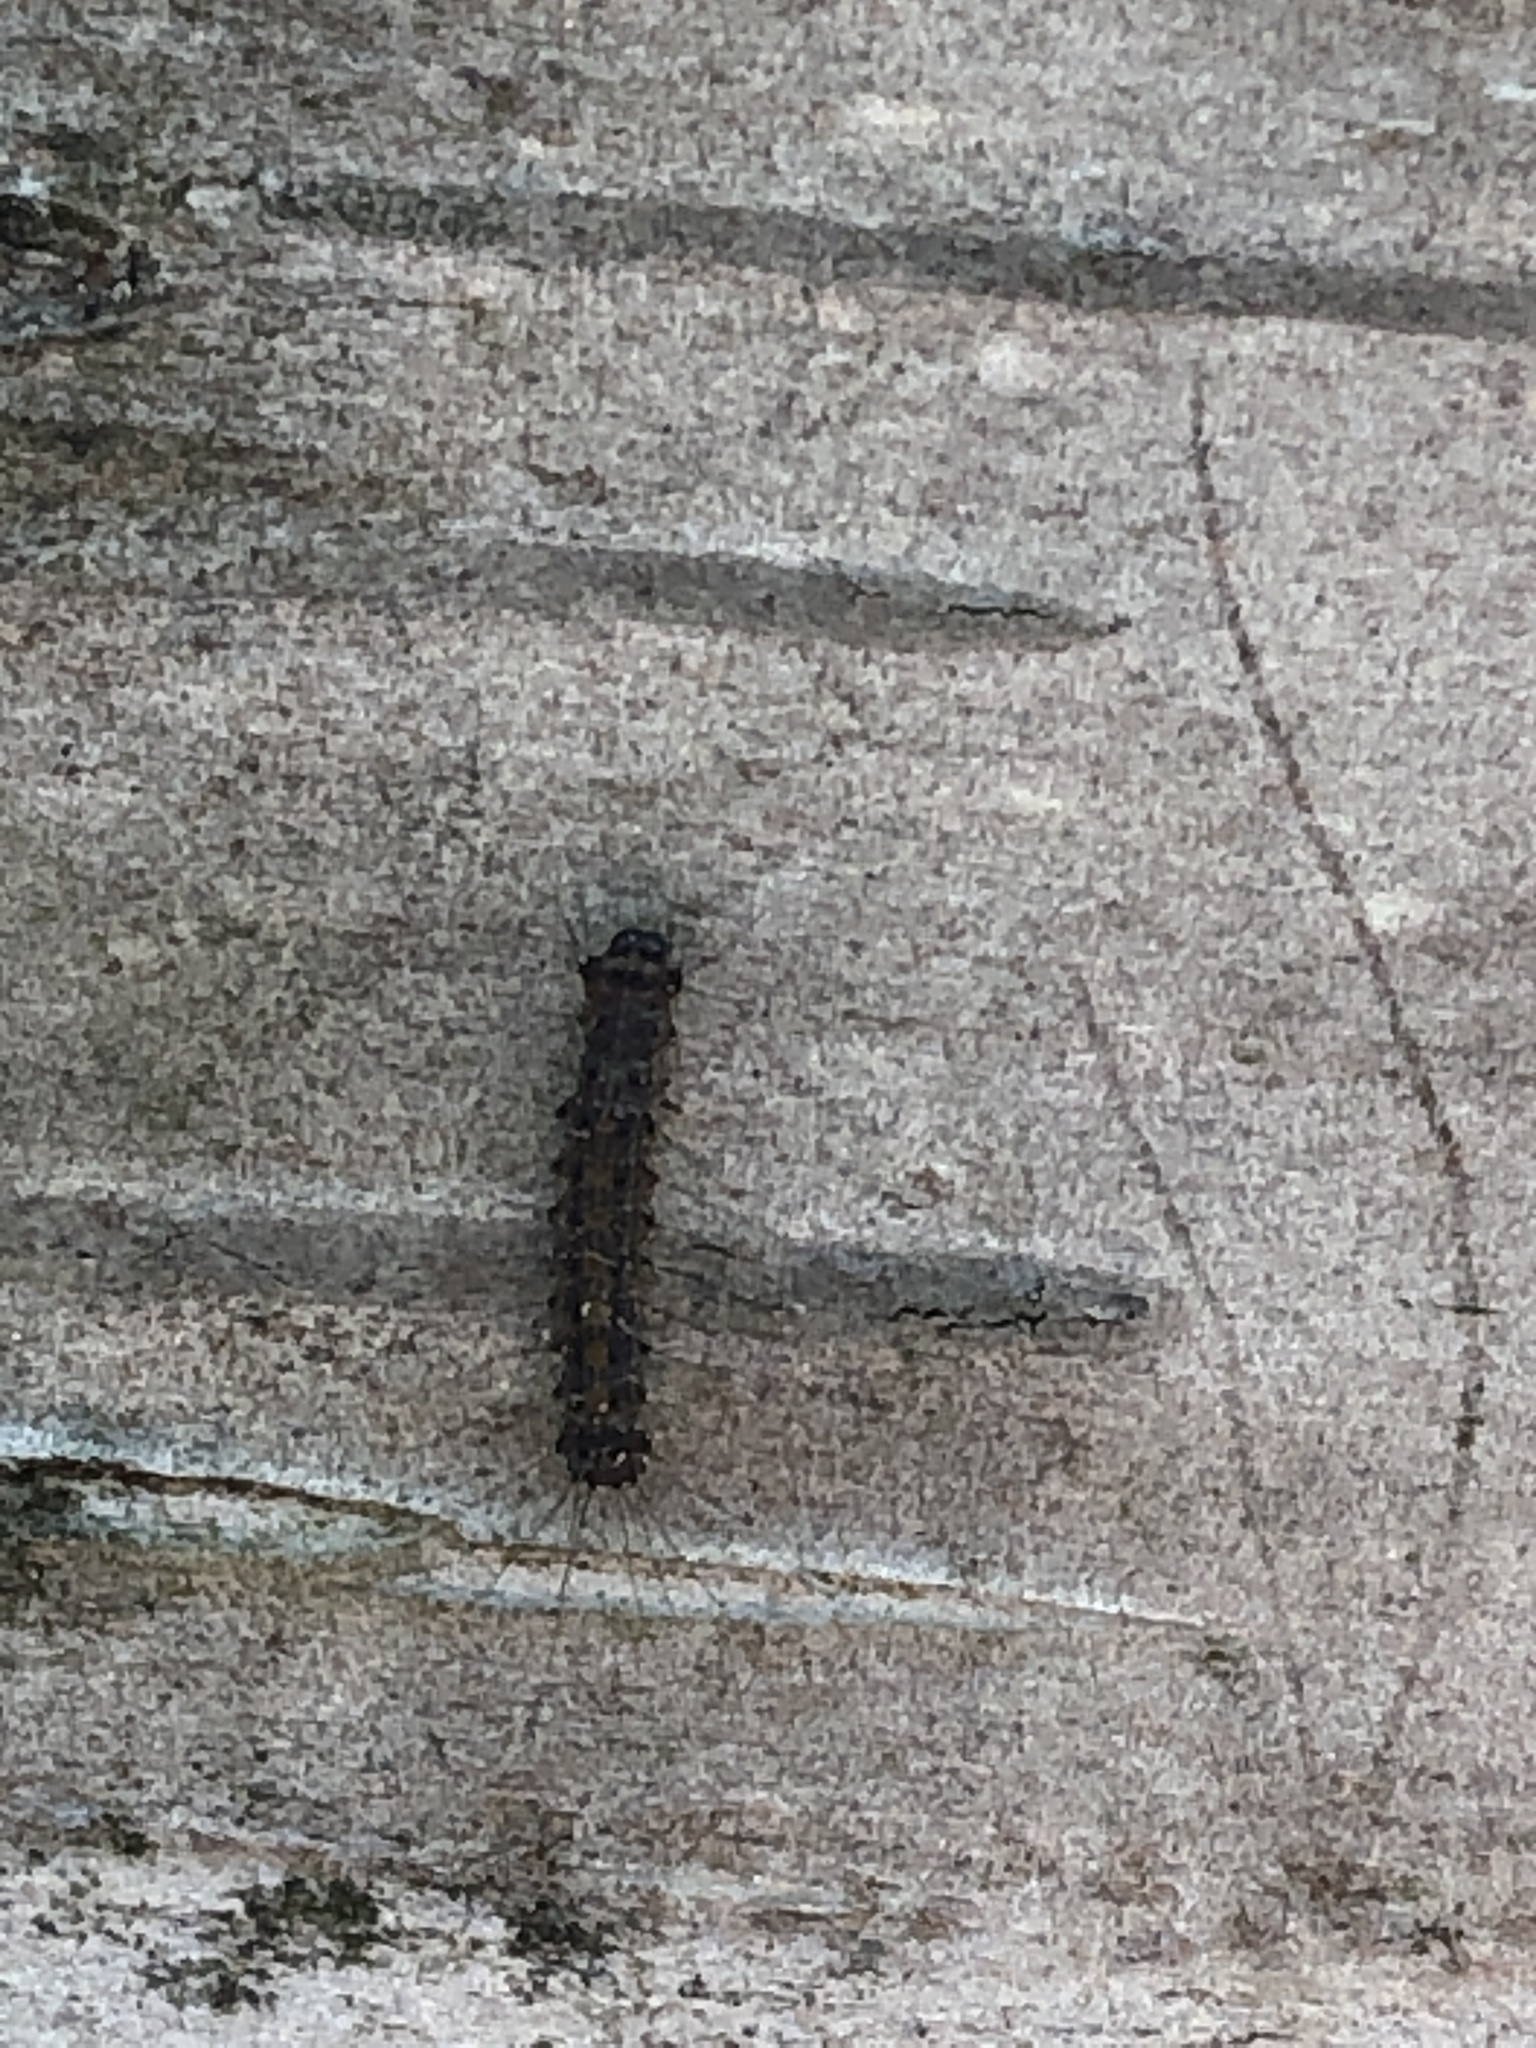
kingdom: Animalia
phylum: Arthropoda
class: Insecta
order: Lepidoptera
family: Erebidae
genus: Lymantria
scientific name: Lymantria dispar
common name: Gypsy moth
